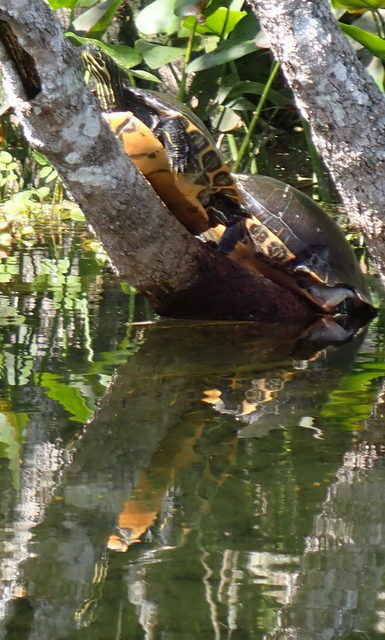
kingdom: Animalia
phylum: Chordata
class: Testudines
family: Emydidae
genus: Pseudemys
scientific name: Pseudemys concinna
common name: Eastern river cooter
